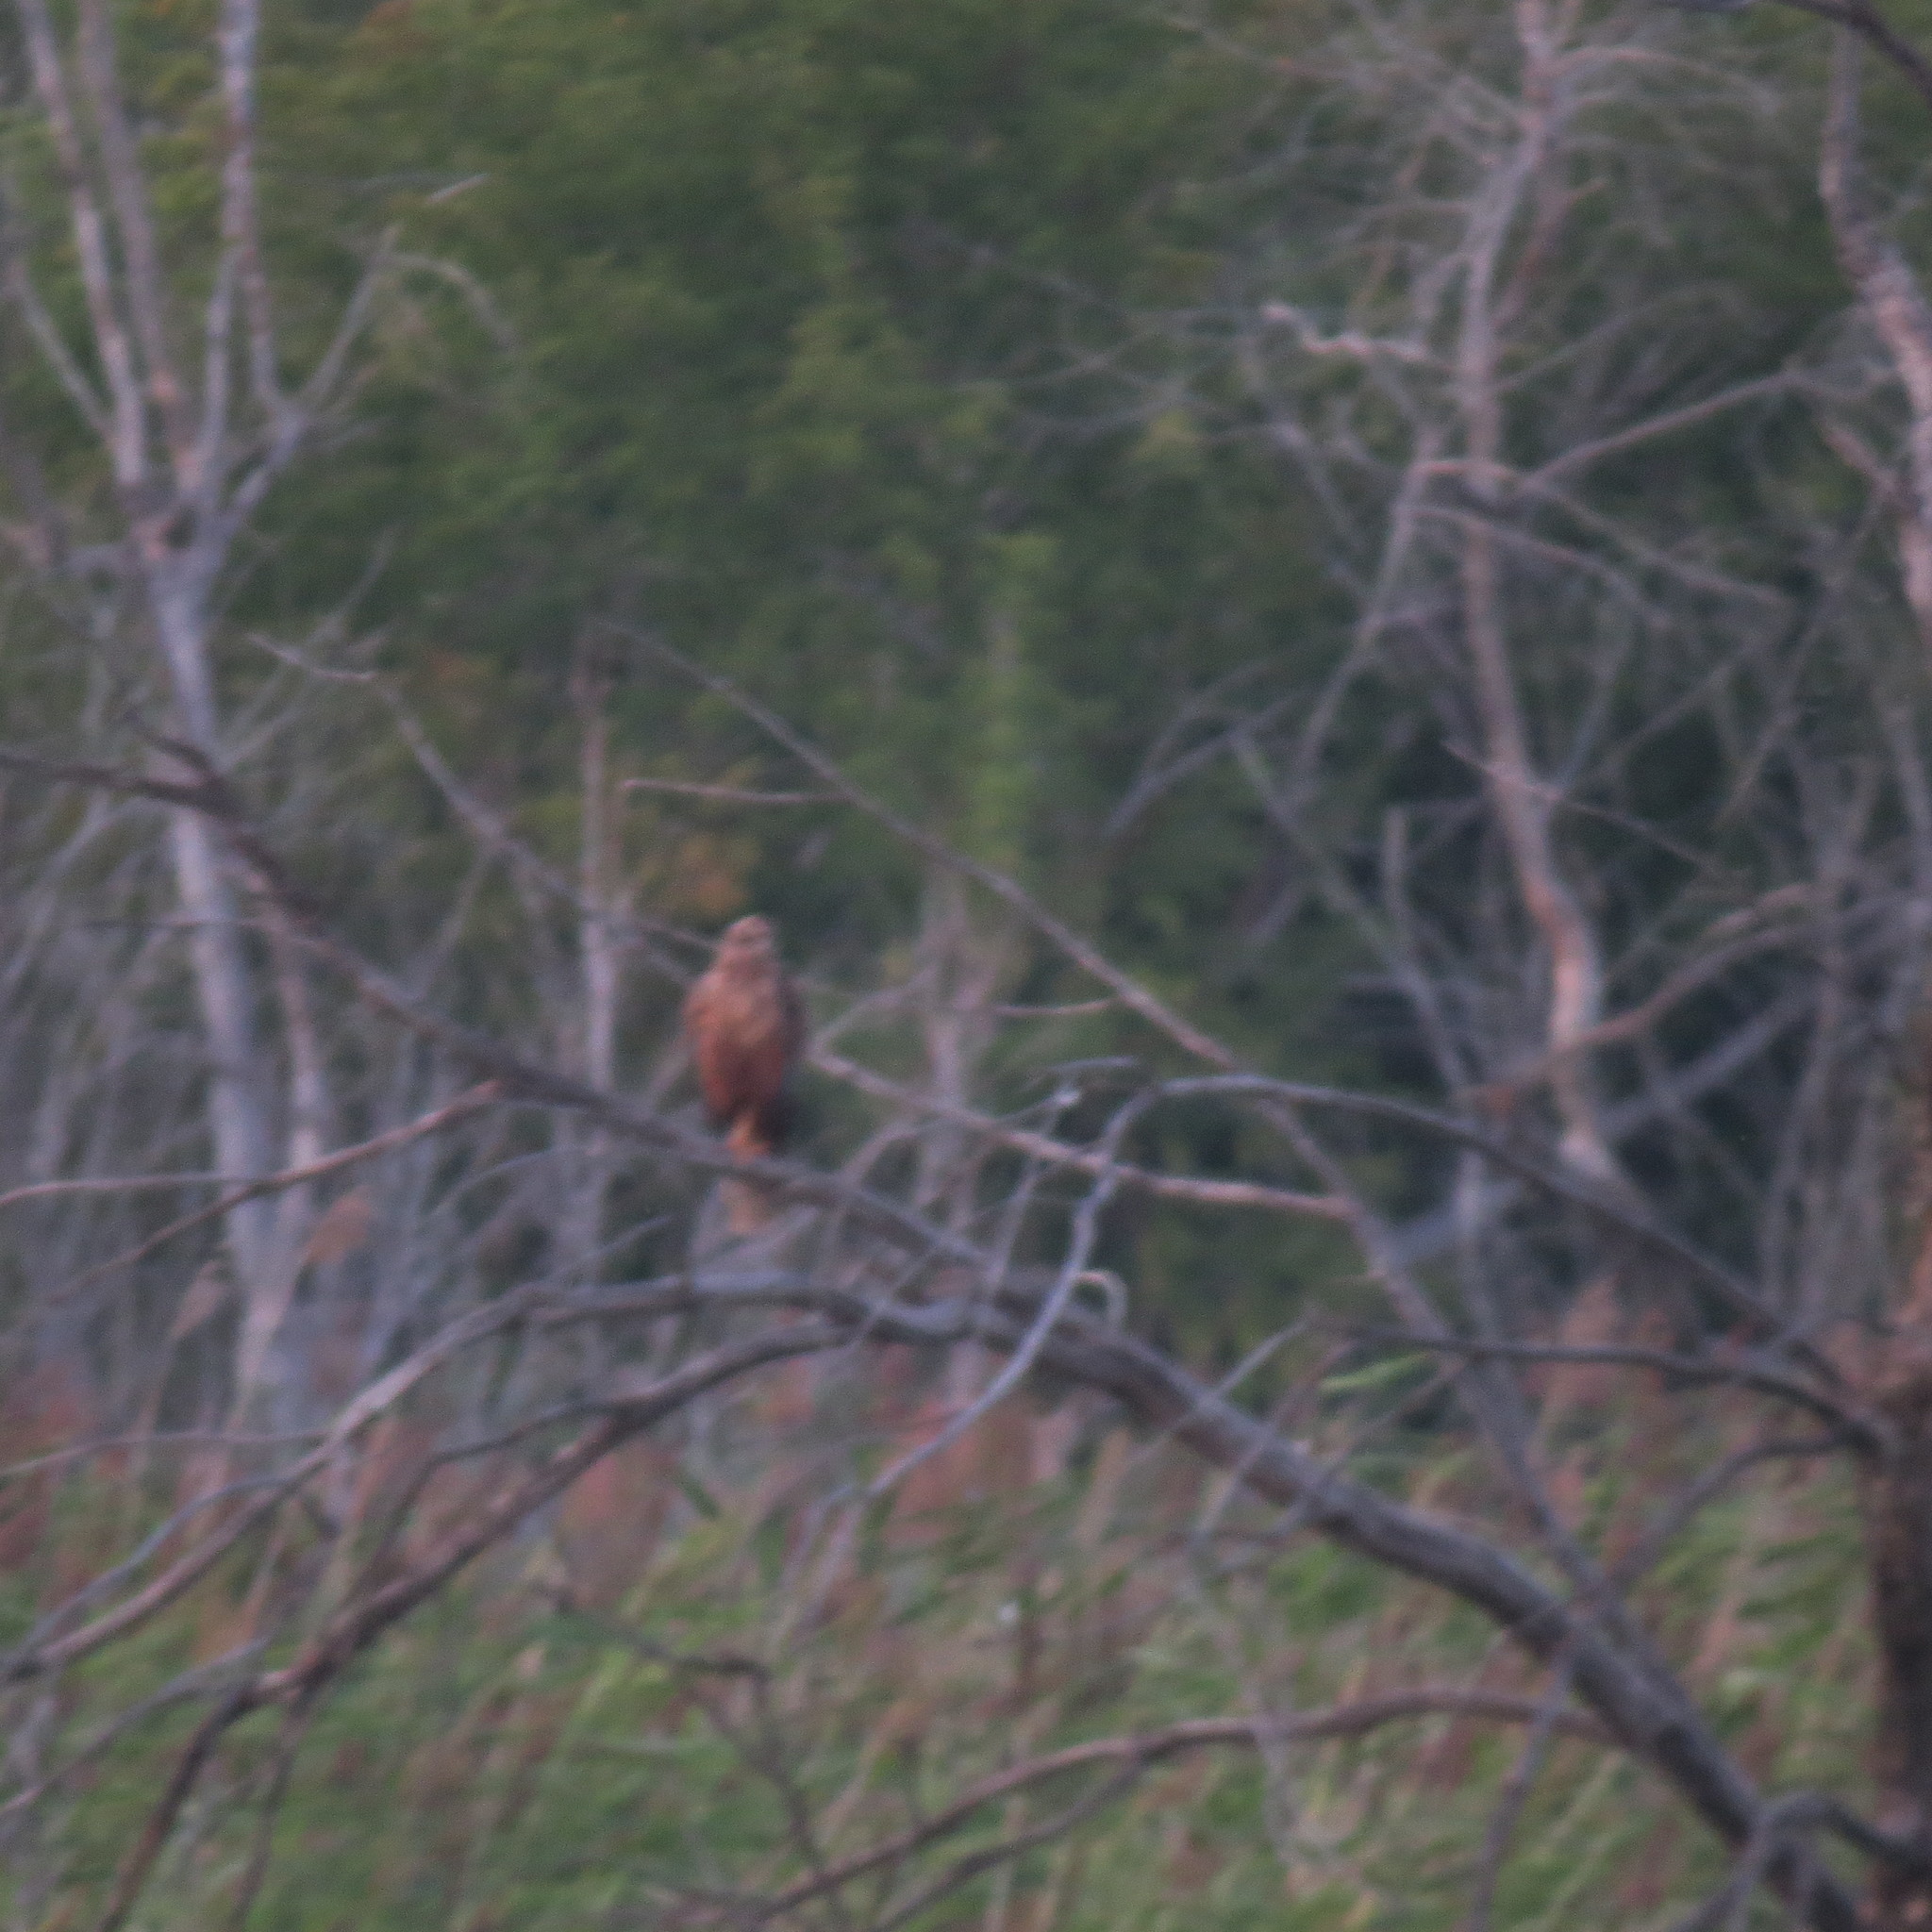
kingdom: Animalia
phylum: Chordata
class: Aves
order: Accipitriformes
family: Accipitridae
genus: Circus
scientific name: Circus aeruginosus
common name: Western marsh harrier
